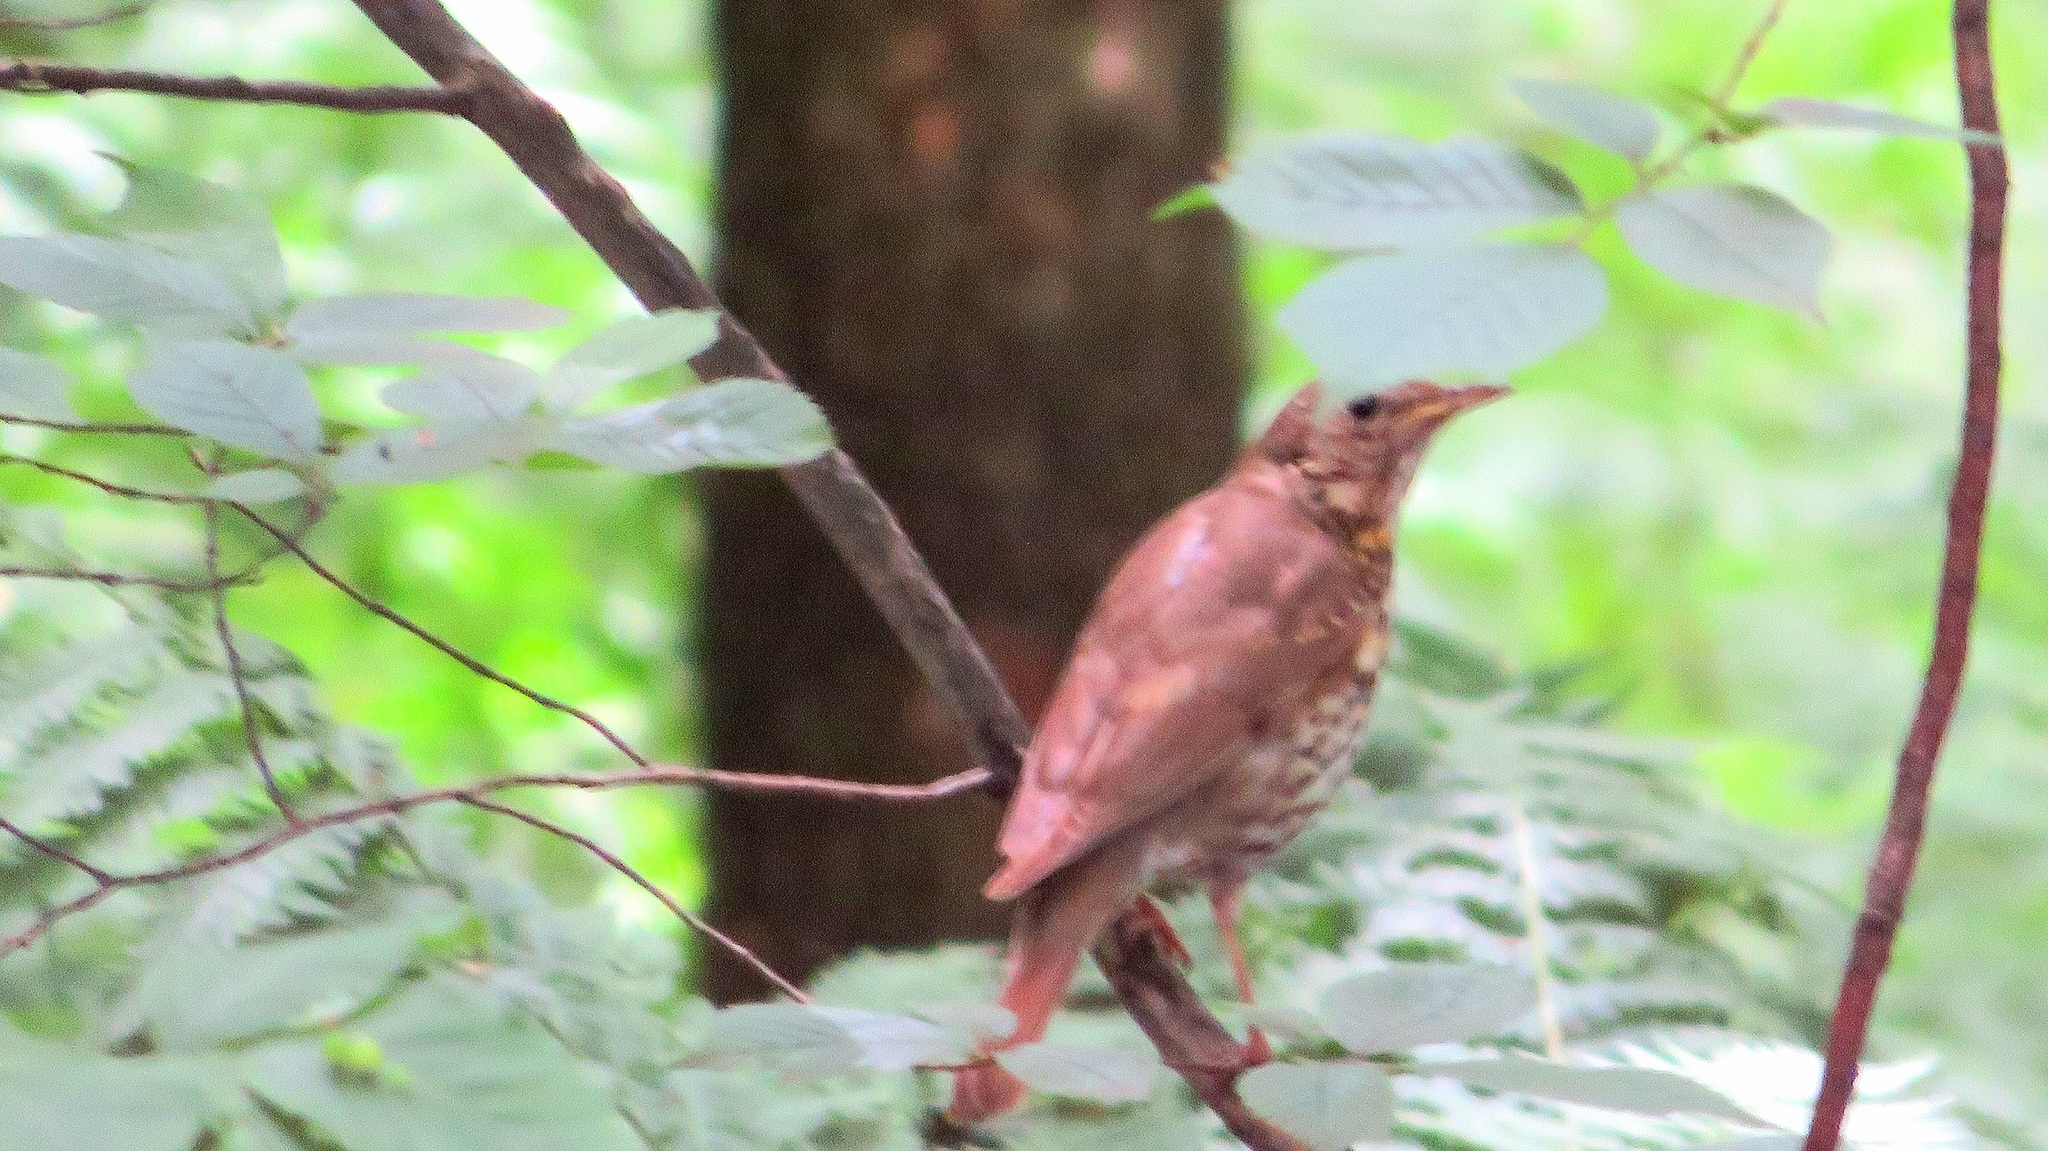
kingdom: Animalia
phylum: Chordata
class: Aves
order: Passeriformes
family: Turdidae
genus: Turdus
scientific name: Turdus philomelos
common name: Song thrush
